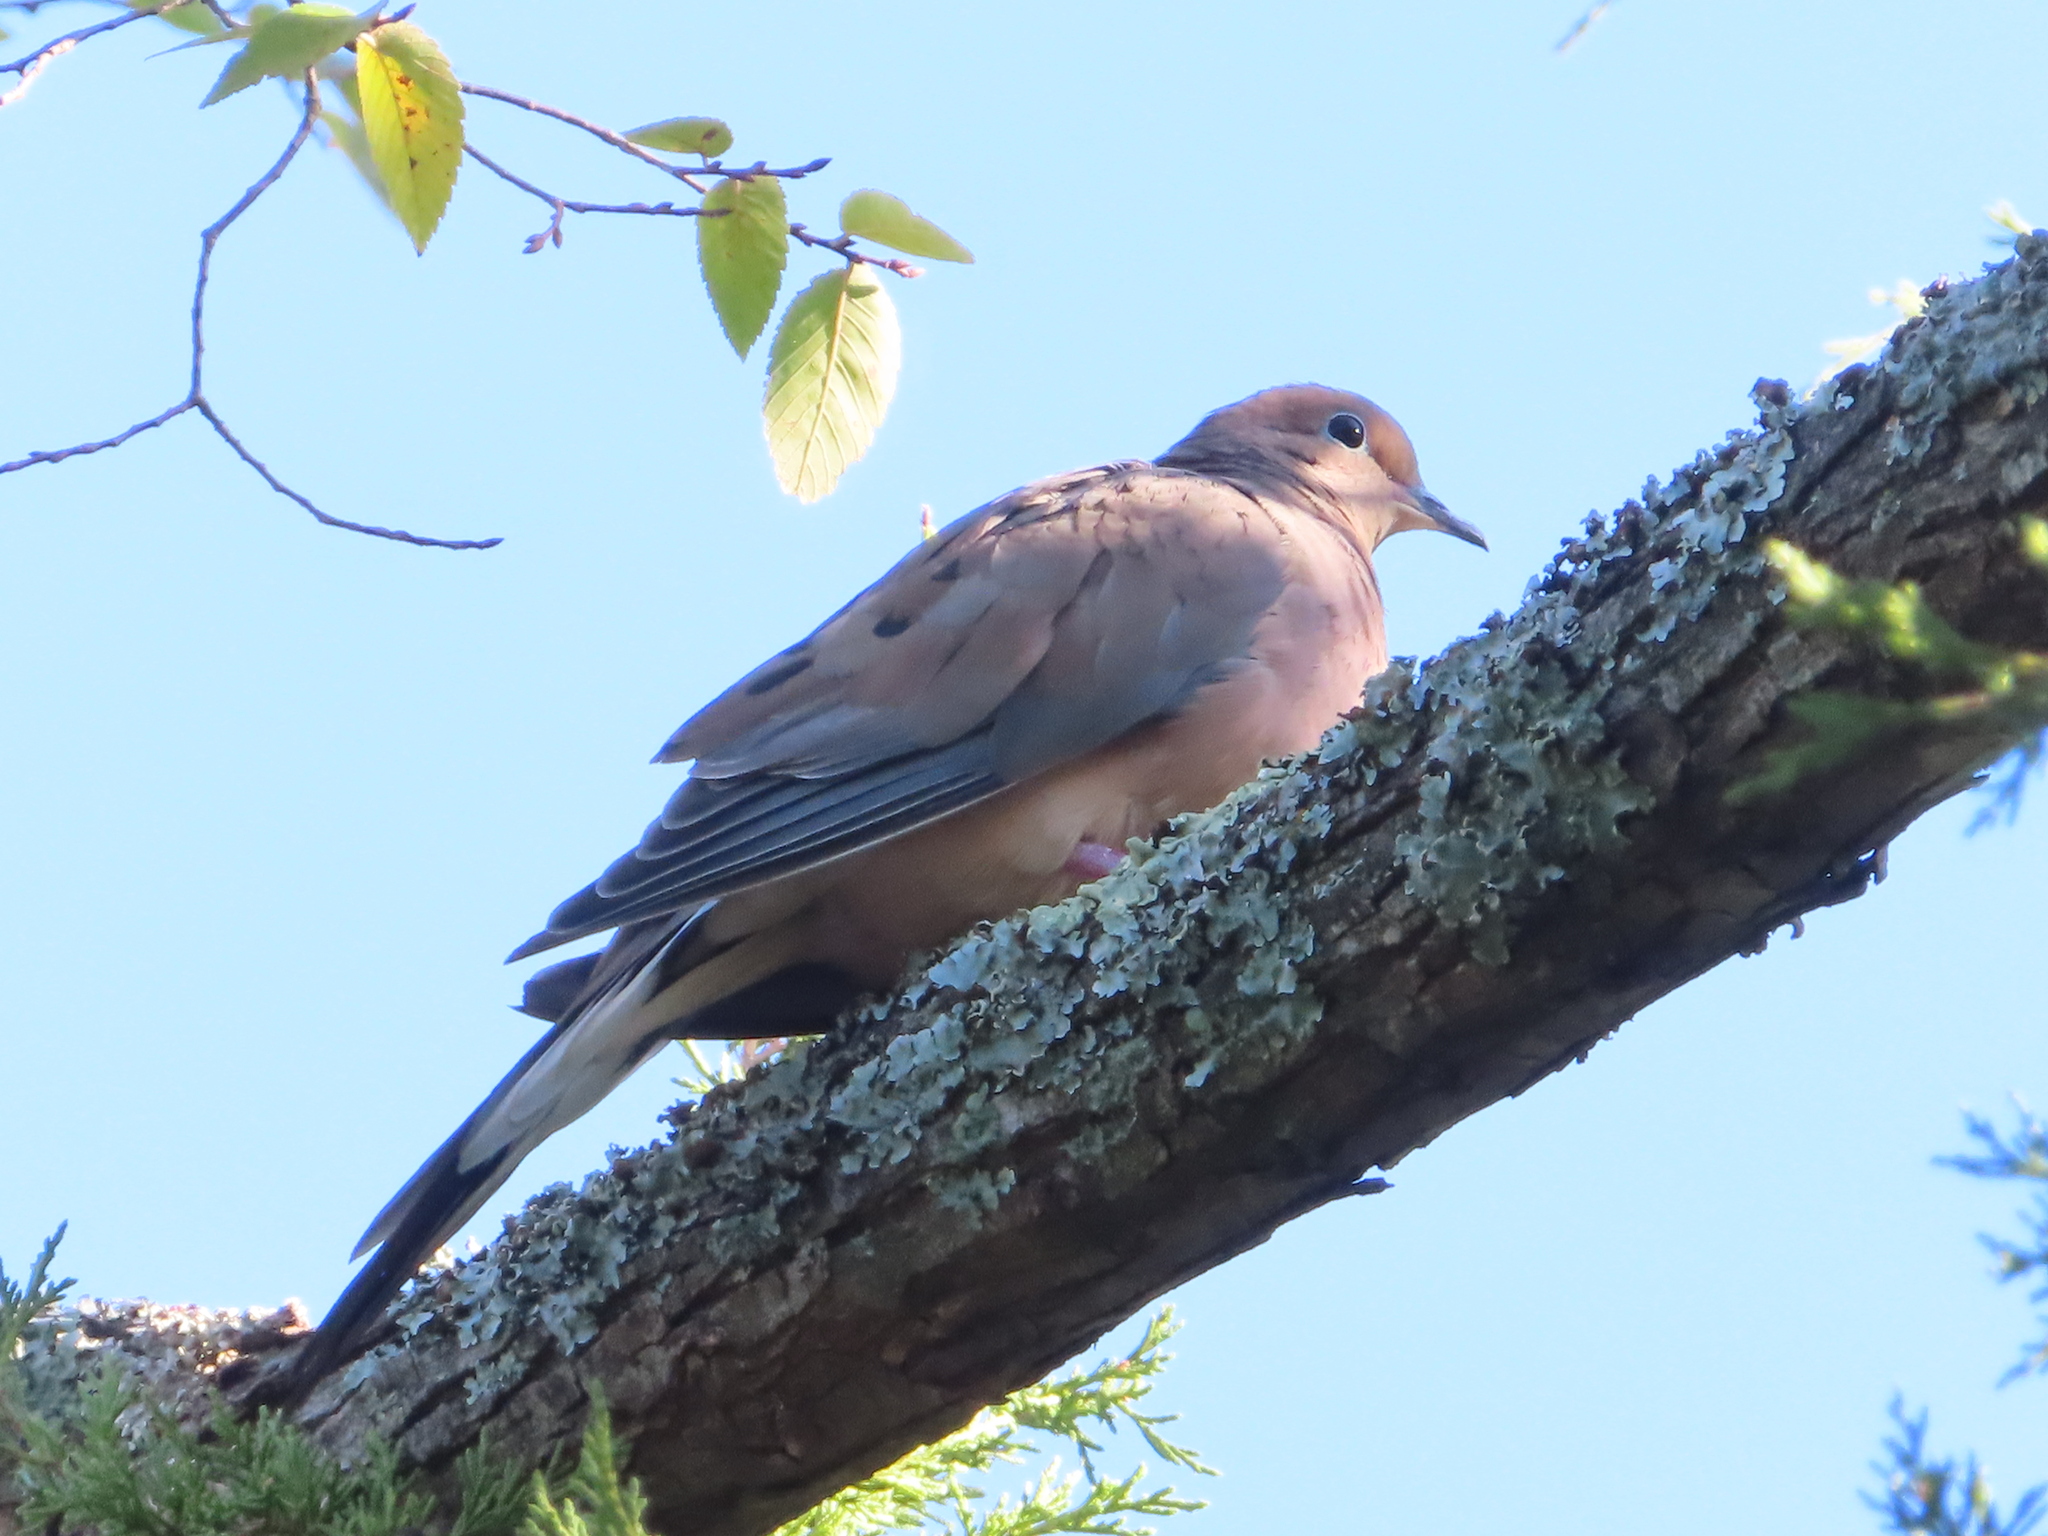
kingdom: Animalia
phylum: Chordata
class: Aves
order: Columbiformes
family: Columbidae
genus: Zenaida
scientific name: Zenaida macroura
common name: Mourning dove
